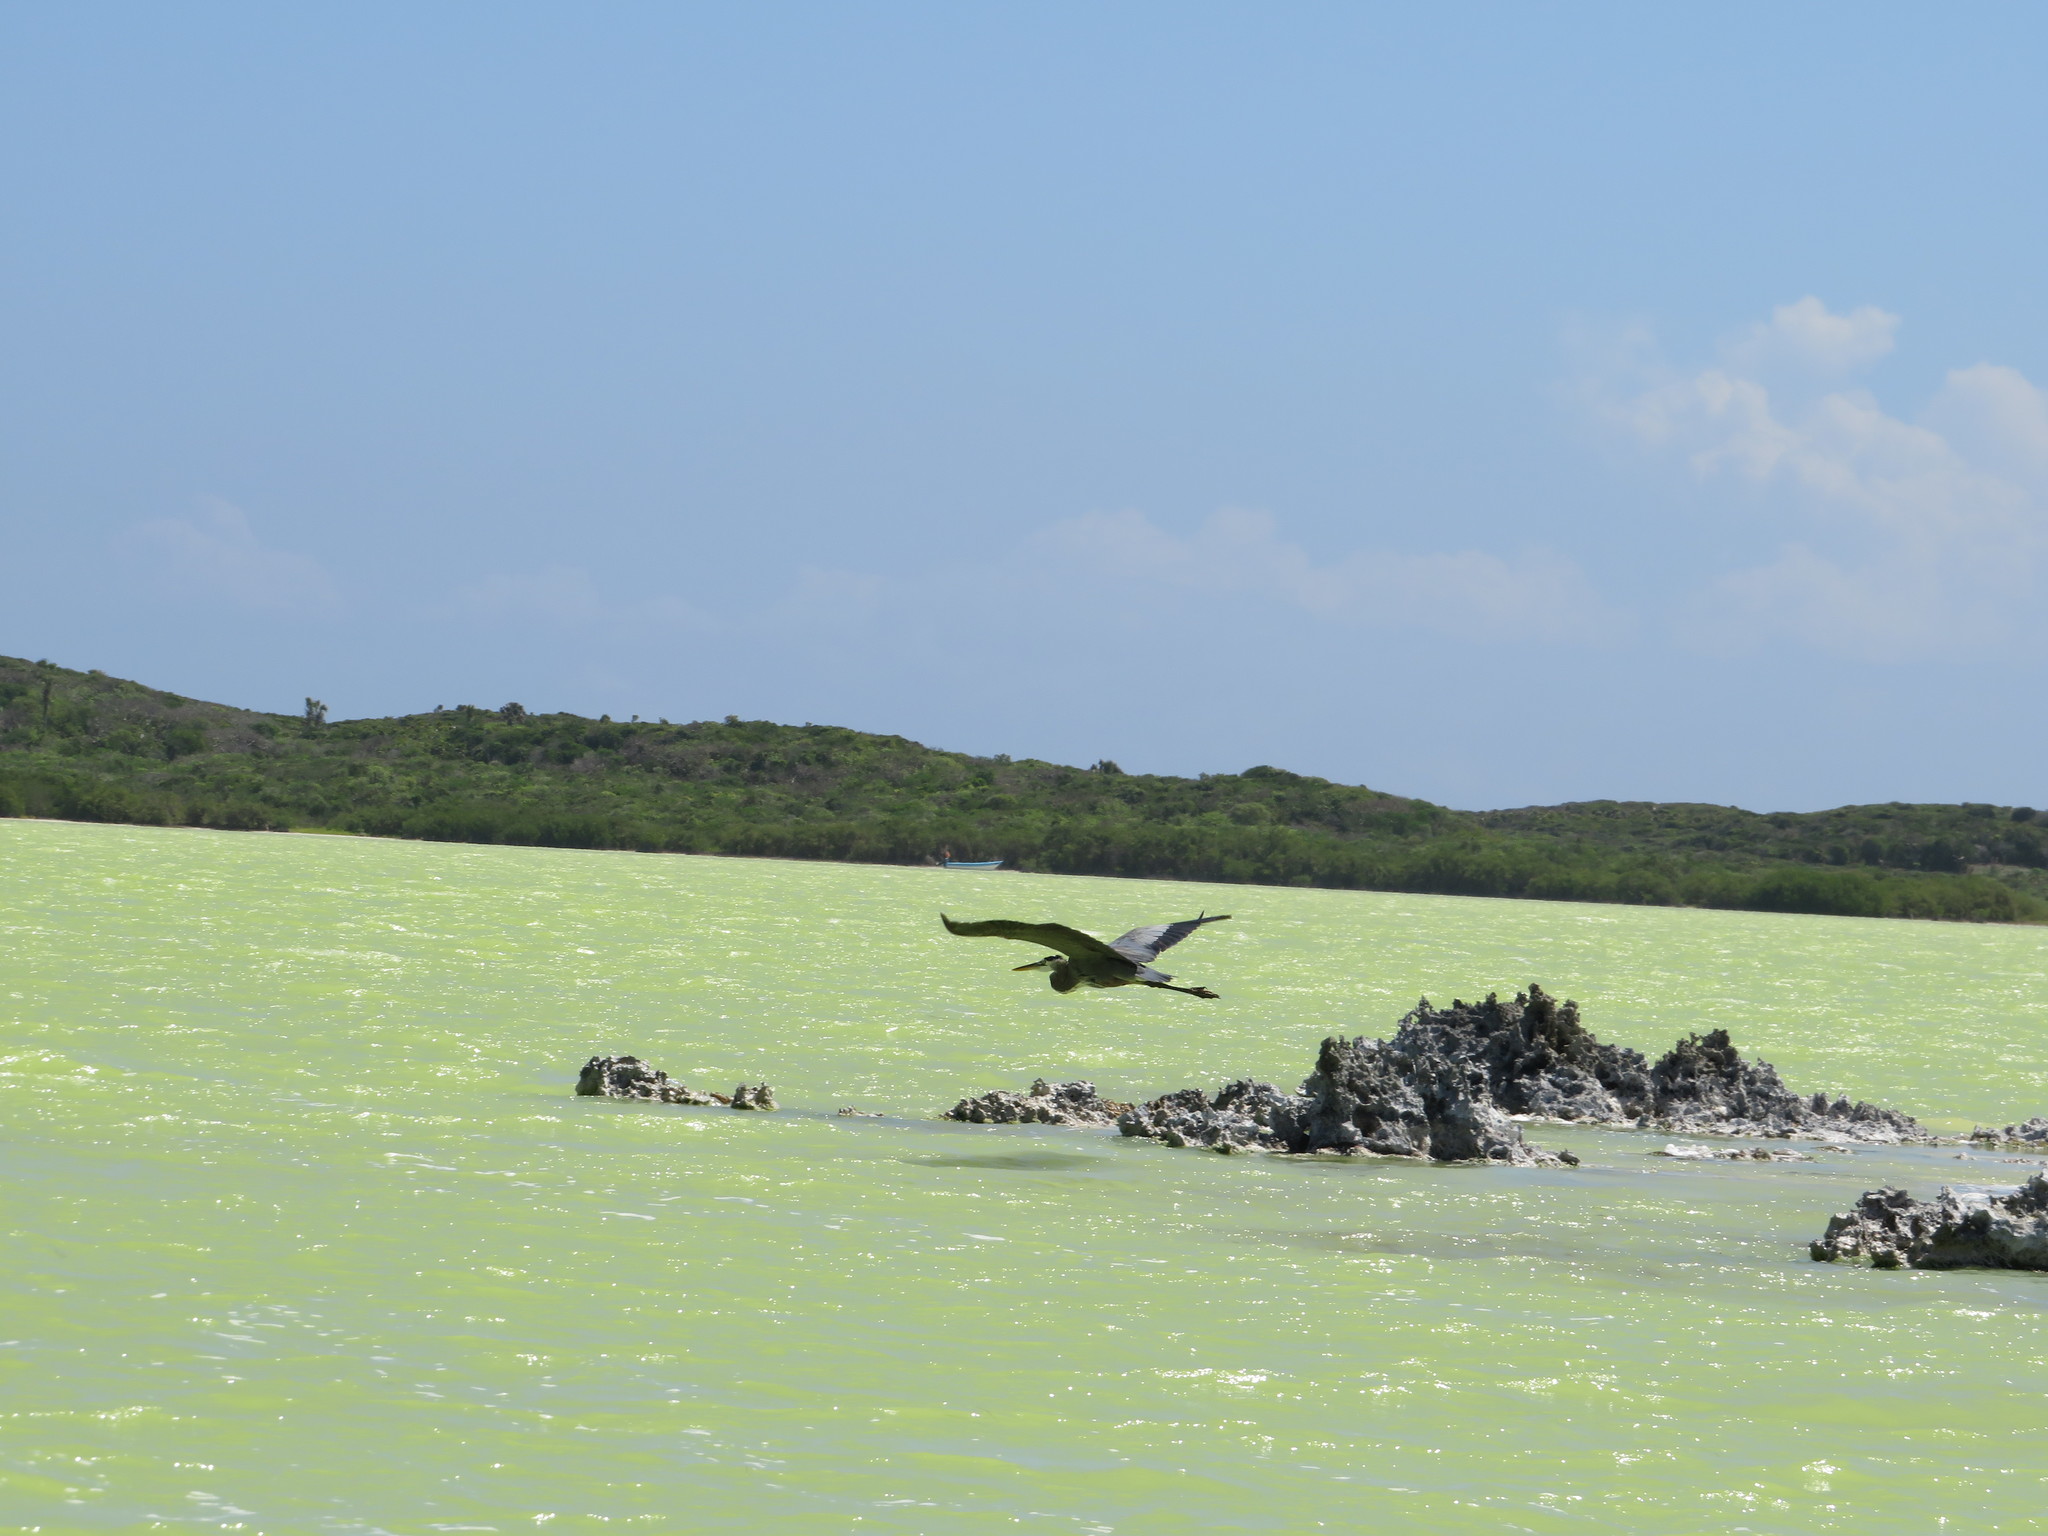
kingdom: Animalia
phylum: Chordata
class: Aves
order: Pelecaniformes
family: Ardeidae
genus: Ardea
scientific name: Ardea herodias
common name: Great blue heron
